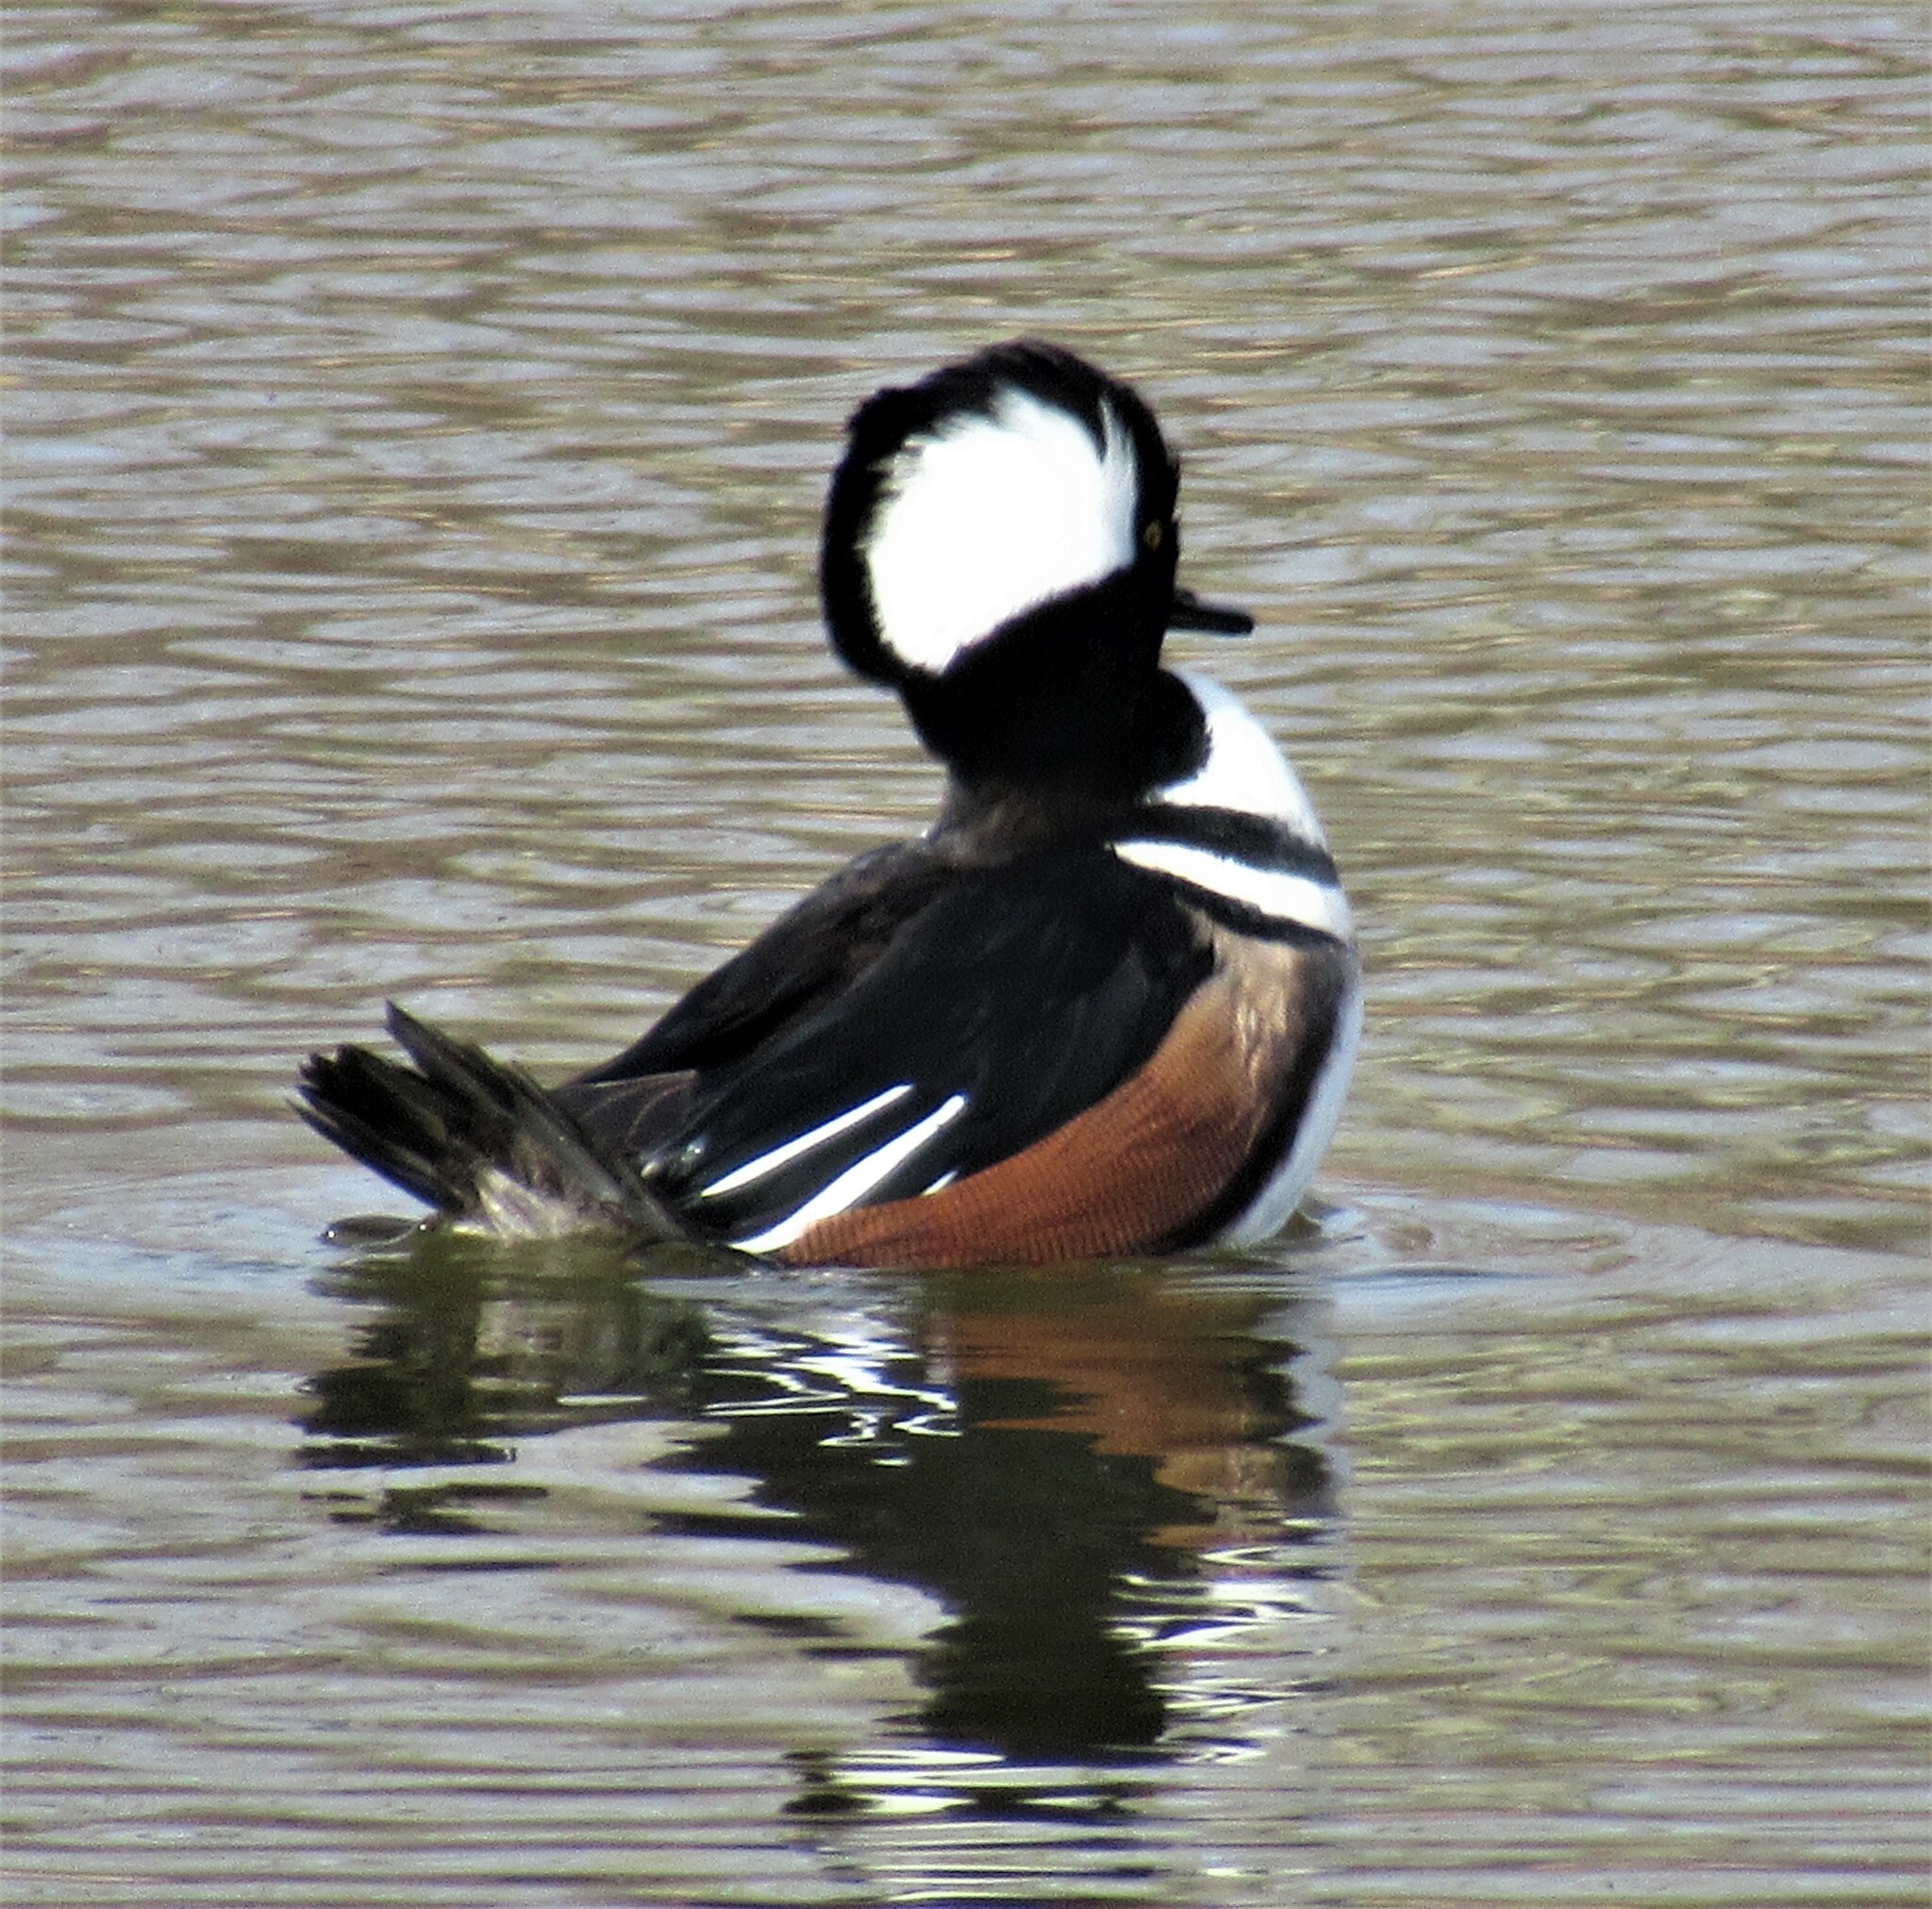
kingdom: Animalia
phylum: Chordata
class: Aves
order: Anseriformes
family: Anatidae
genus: Lophodytes
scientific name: Lophodytes cucullatus
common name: Hooded merganser
